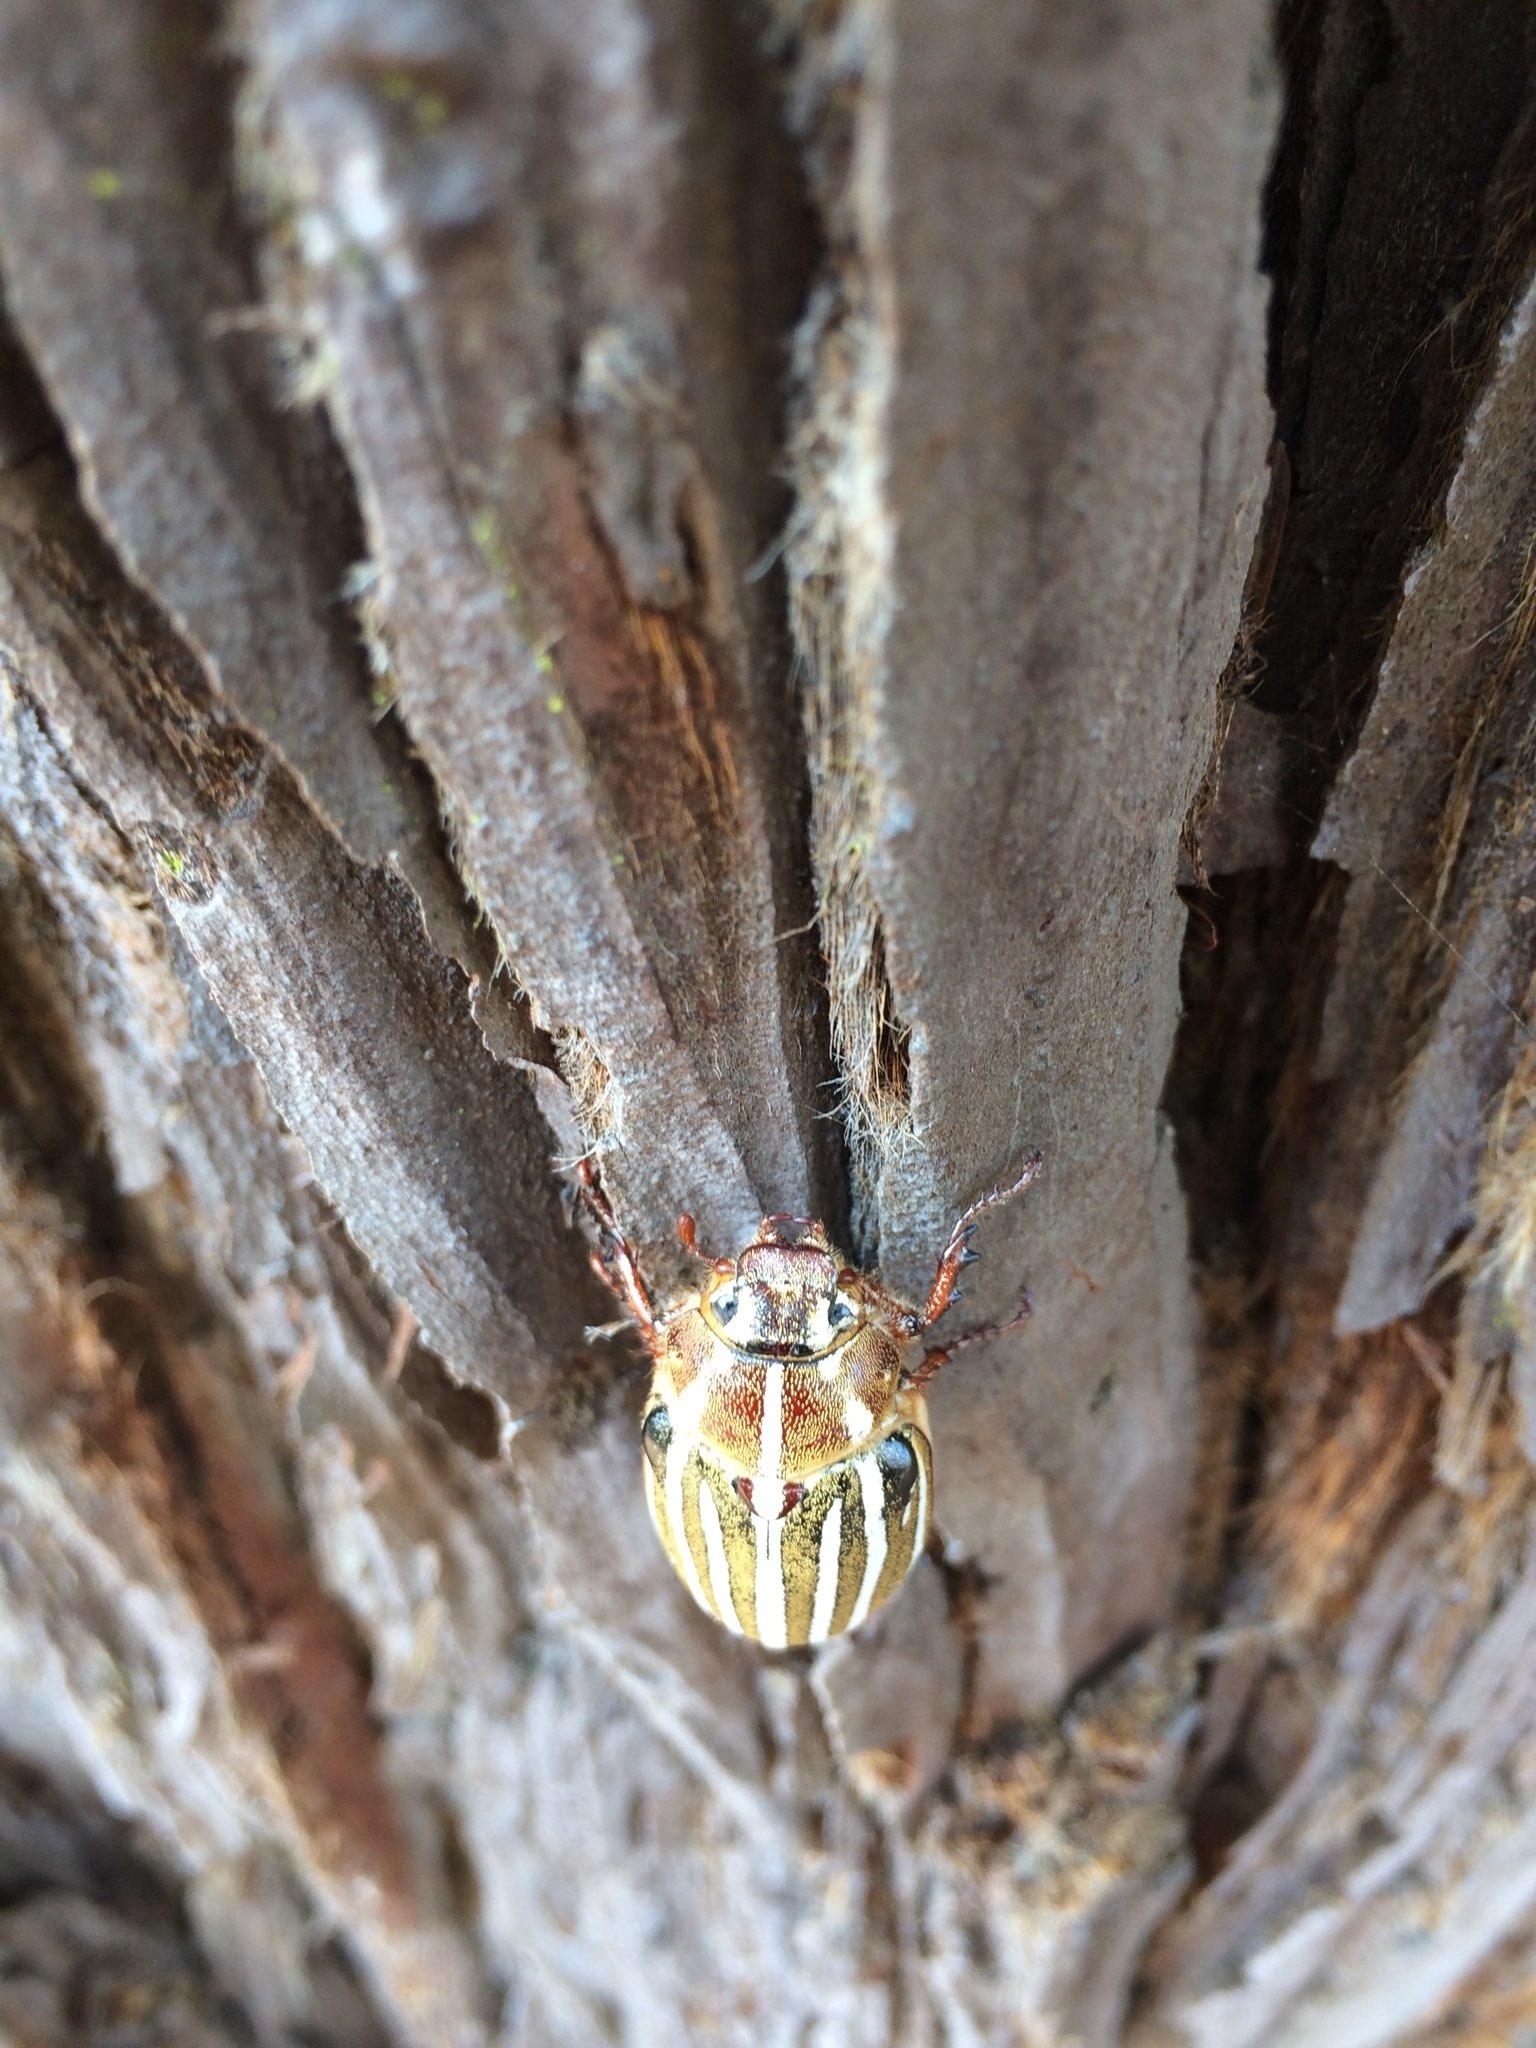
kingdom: Animalia
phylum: Arthropoda
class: Insecta
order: Coleoptera
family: Scarabaeidae
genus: Polyphylla
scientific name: Polyphylla decemlineata
